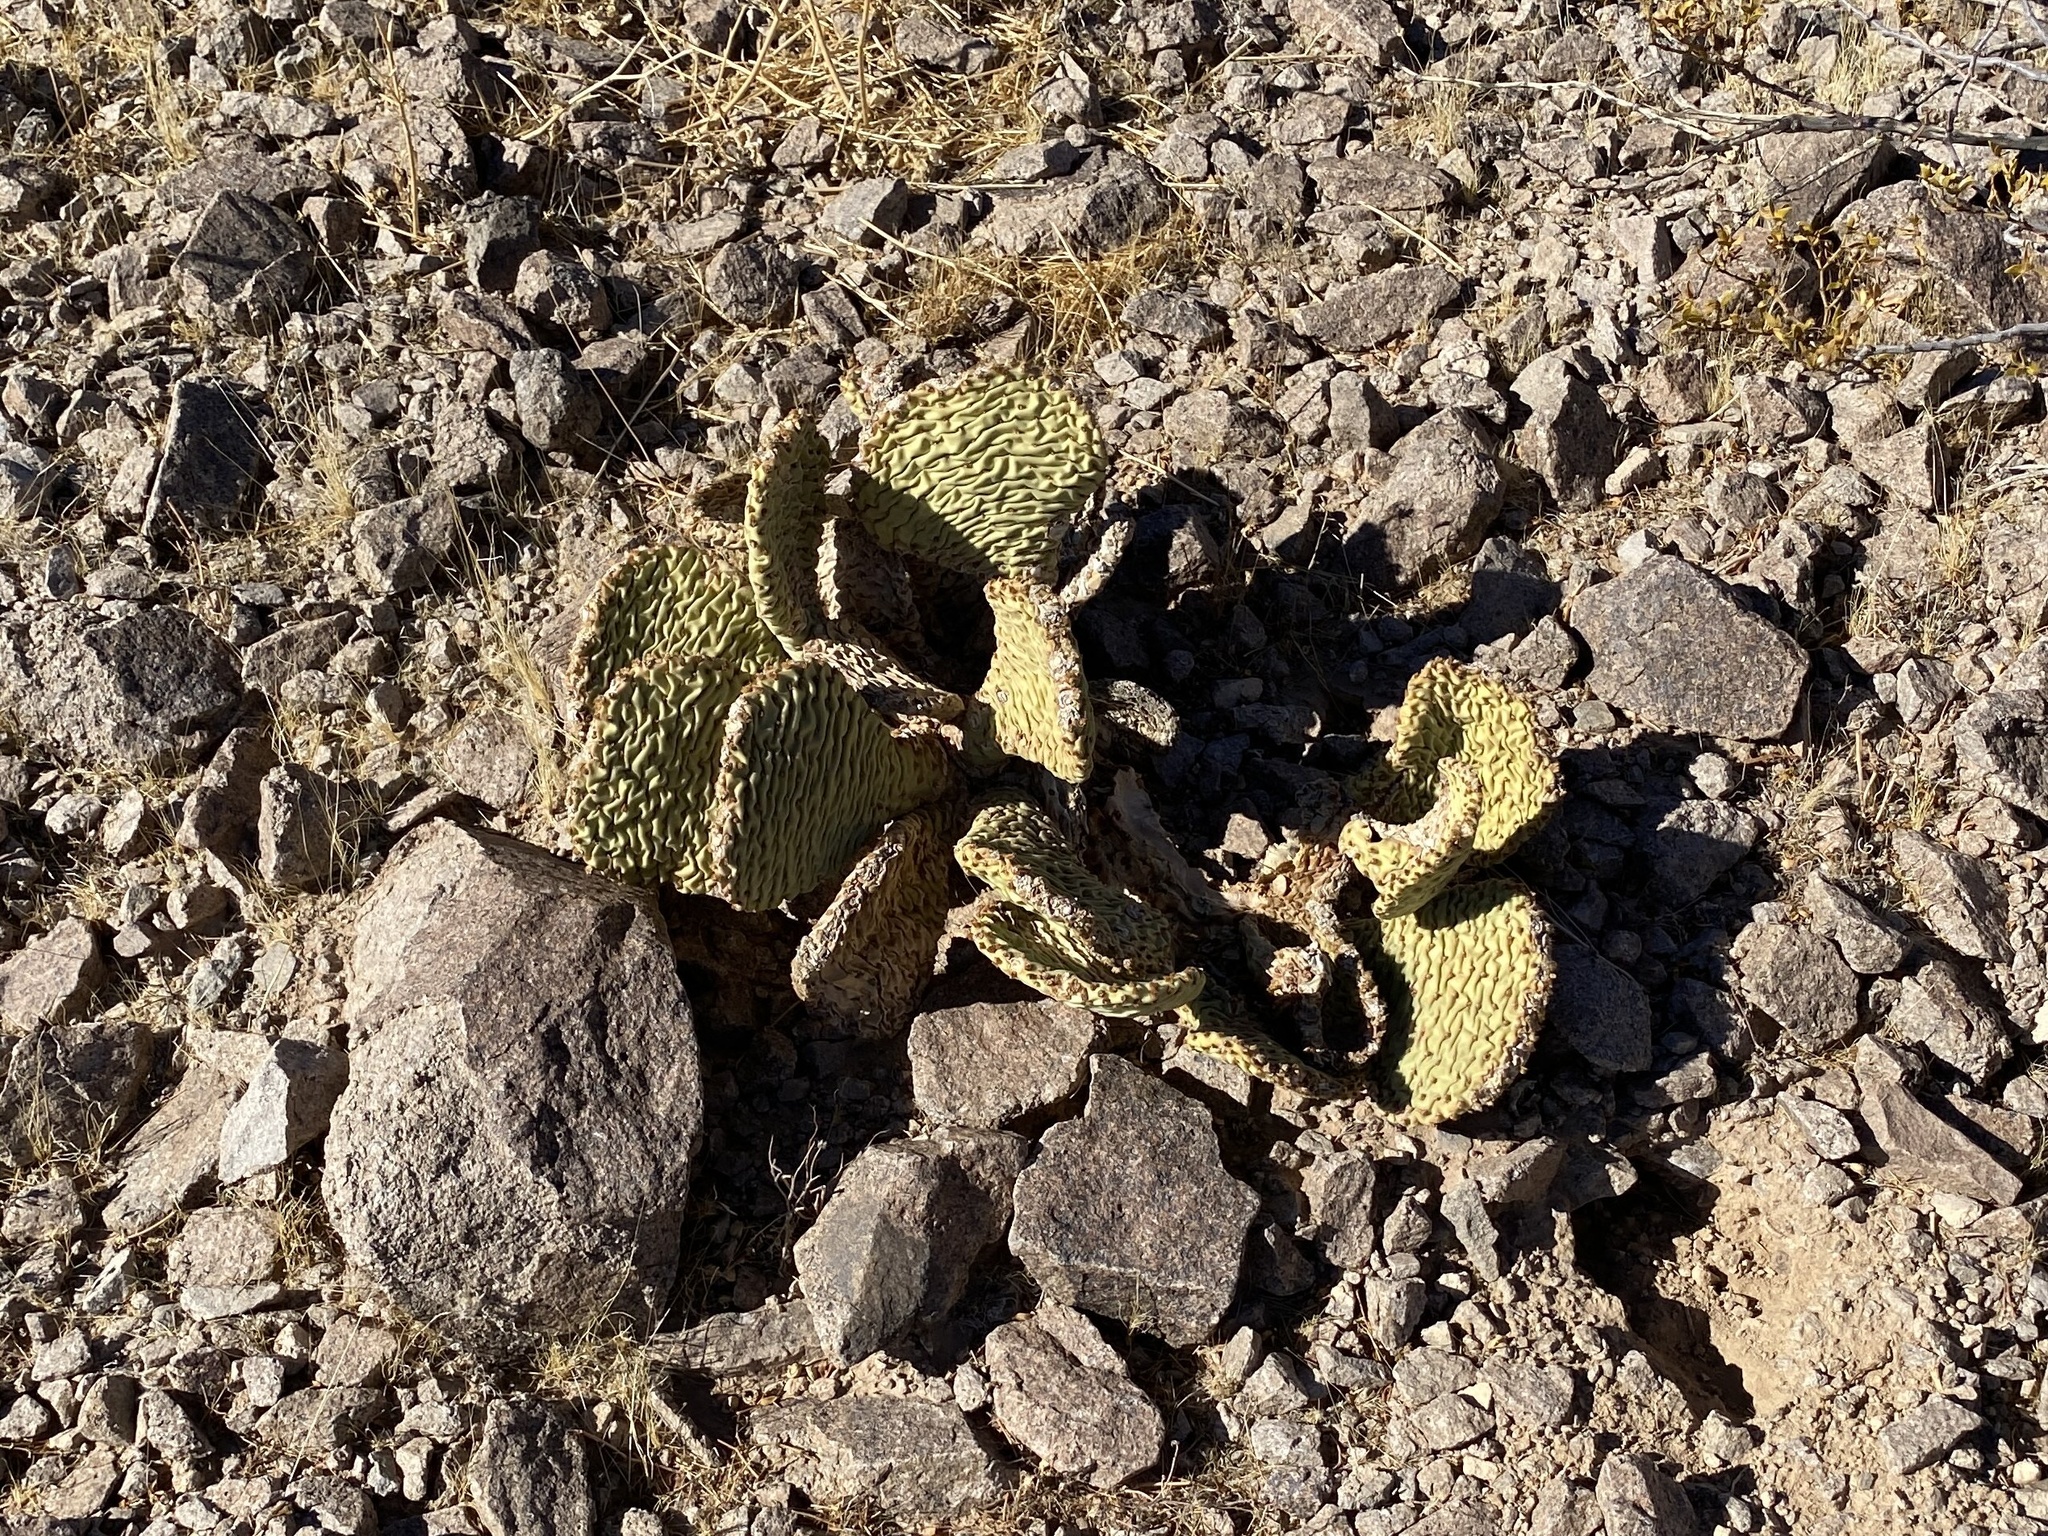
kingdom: Plantae
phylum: Tracheophyta
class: Magnoliopsida
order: Caryophyllales
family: Cactaceae
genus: Opuntia
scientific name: Opuntia basilaris
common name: Beavertail prickly-pear
